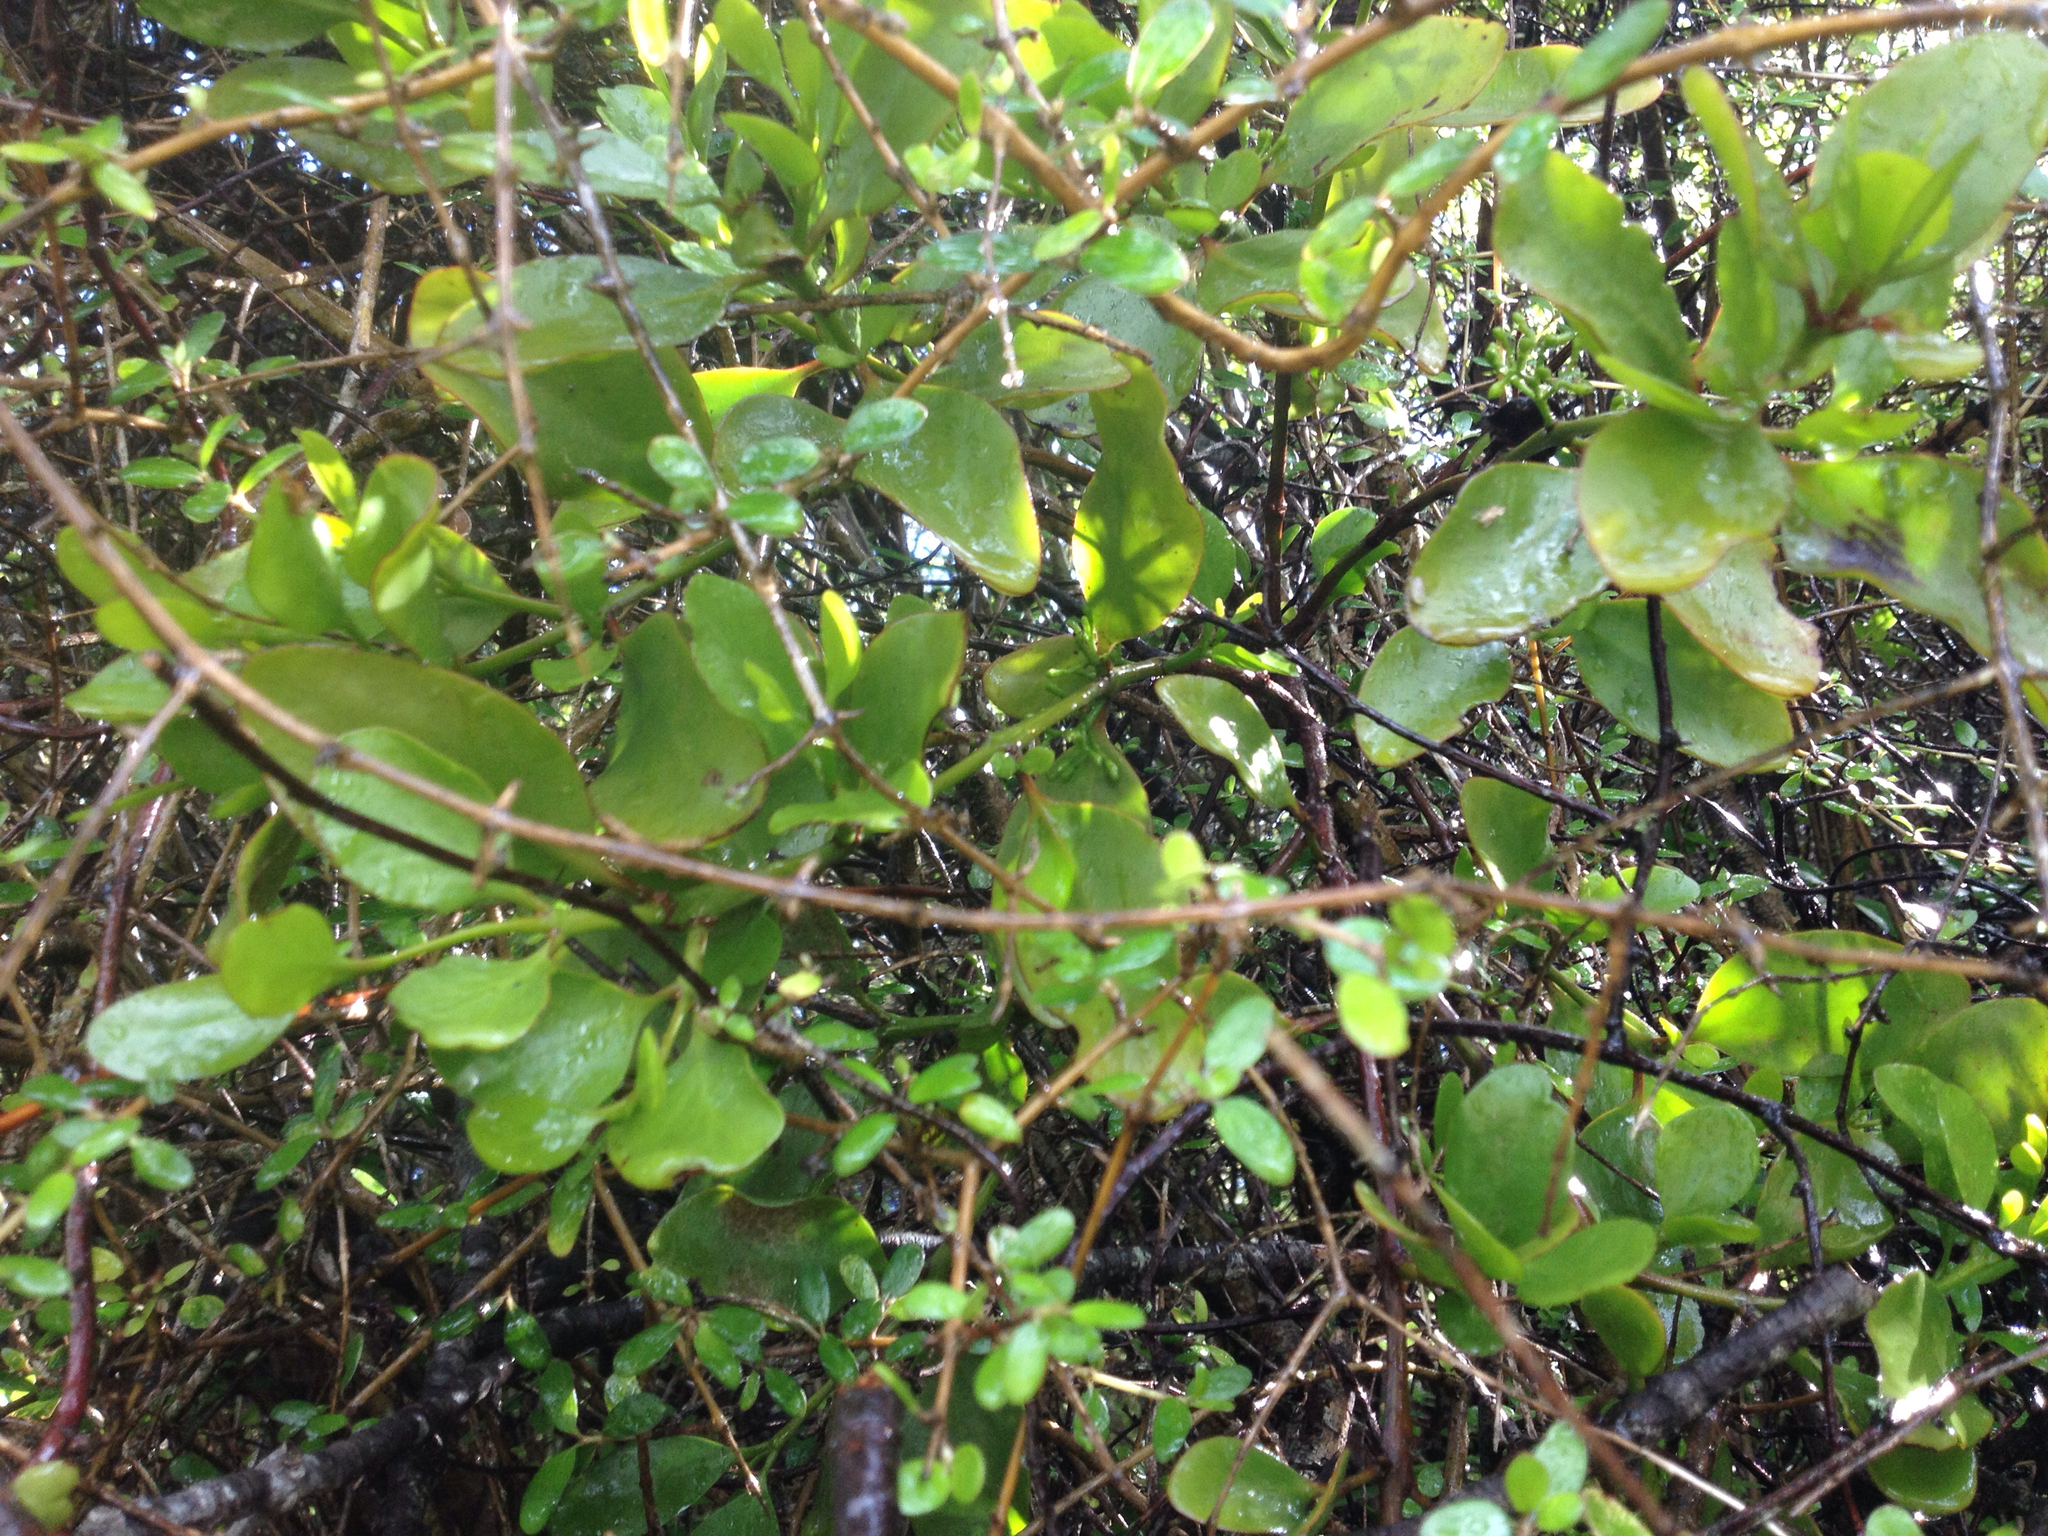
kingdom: Plantae
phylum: Tracheophyta
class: Magnoliopsida
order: Santalales
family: Loranthaceae
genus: Ileostylus
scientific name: Ileostylus micranthus
